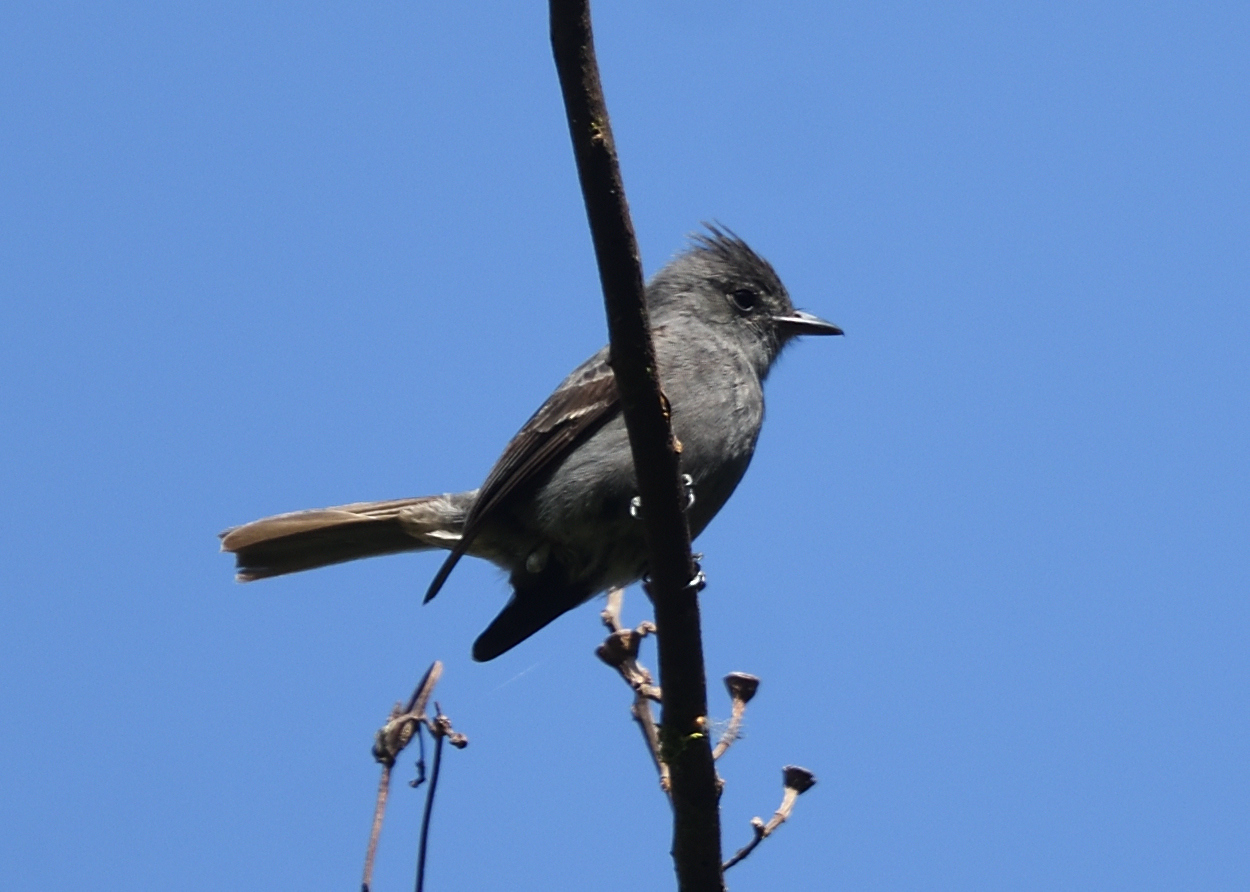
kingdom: Animalia
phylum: Chordata
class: Aves
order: Passeriformes
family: Tyrannidae
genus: Contopus
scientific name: Contopus fumigatus
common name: Smoke-colored pewee
